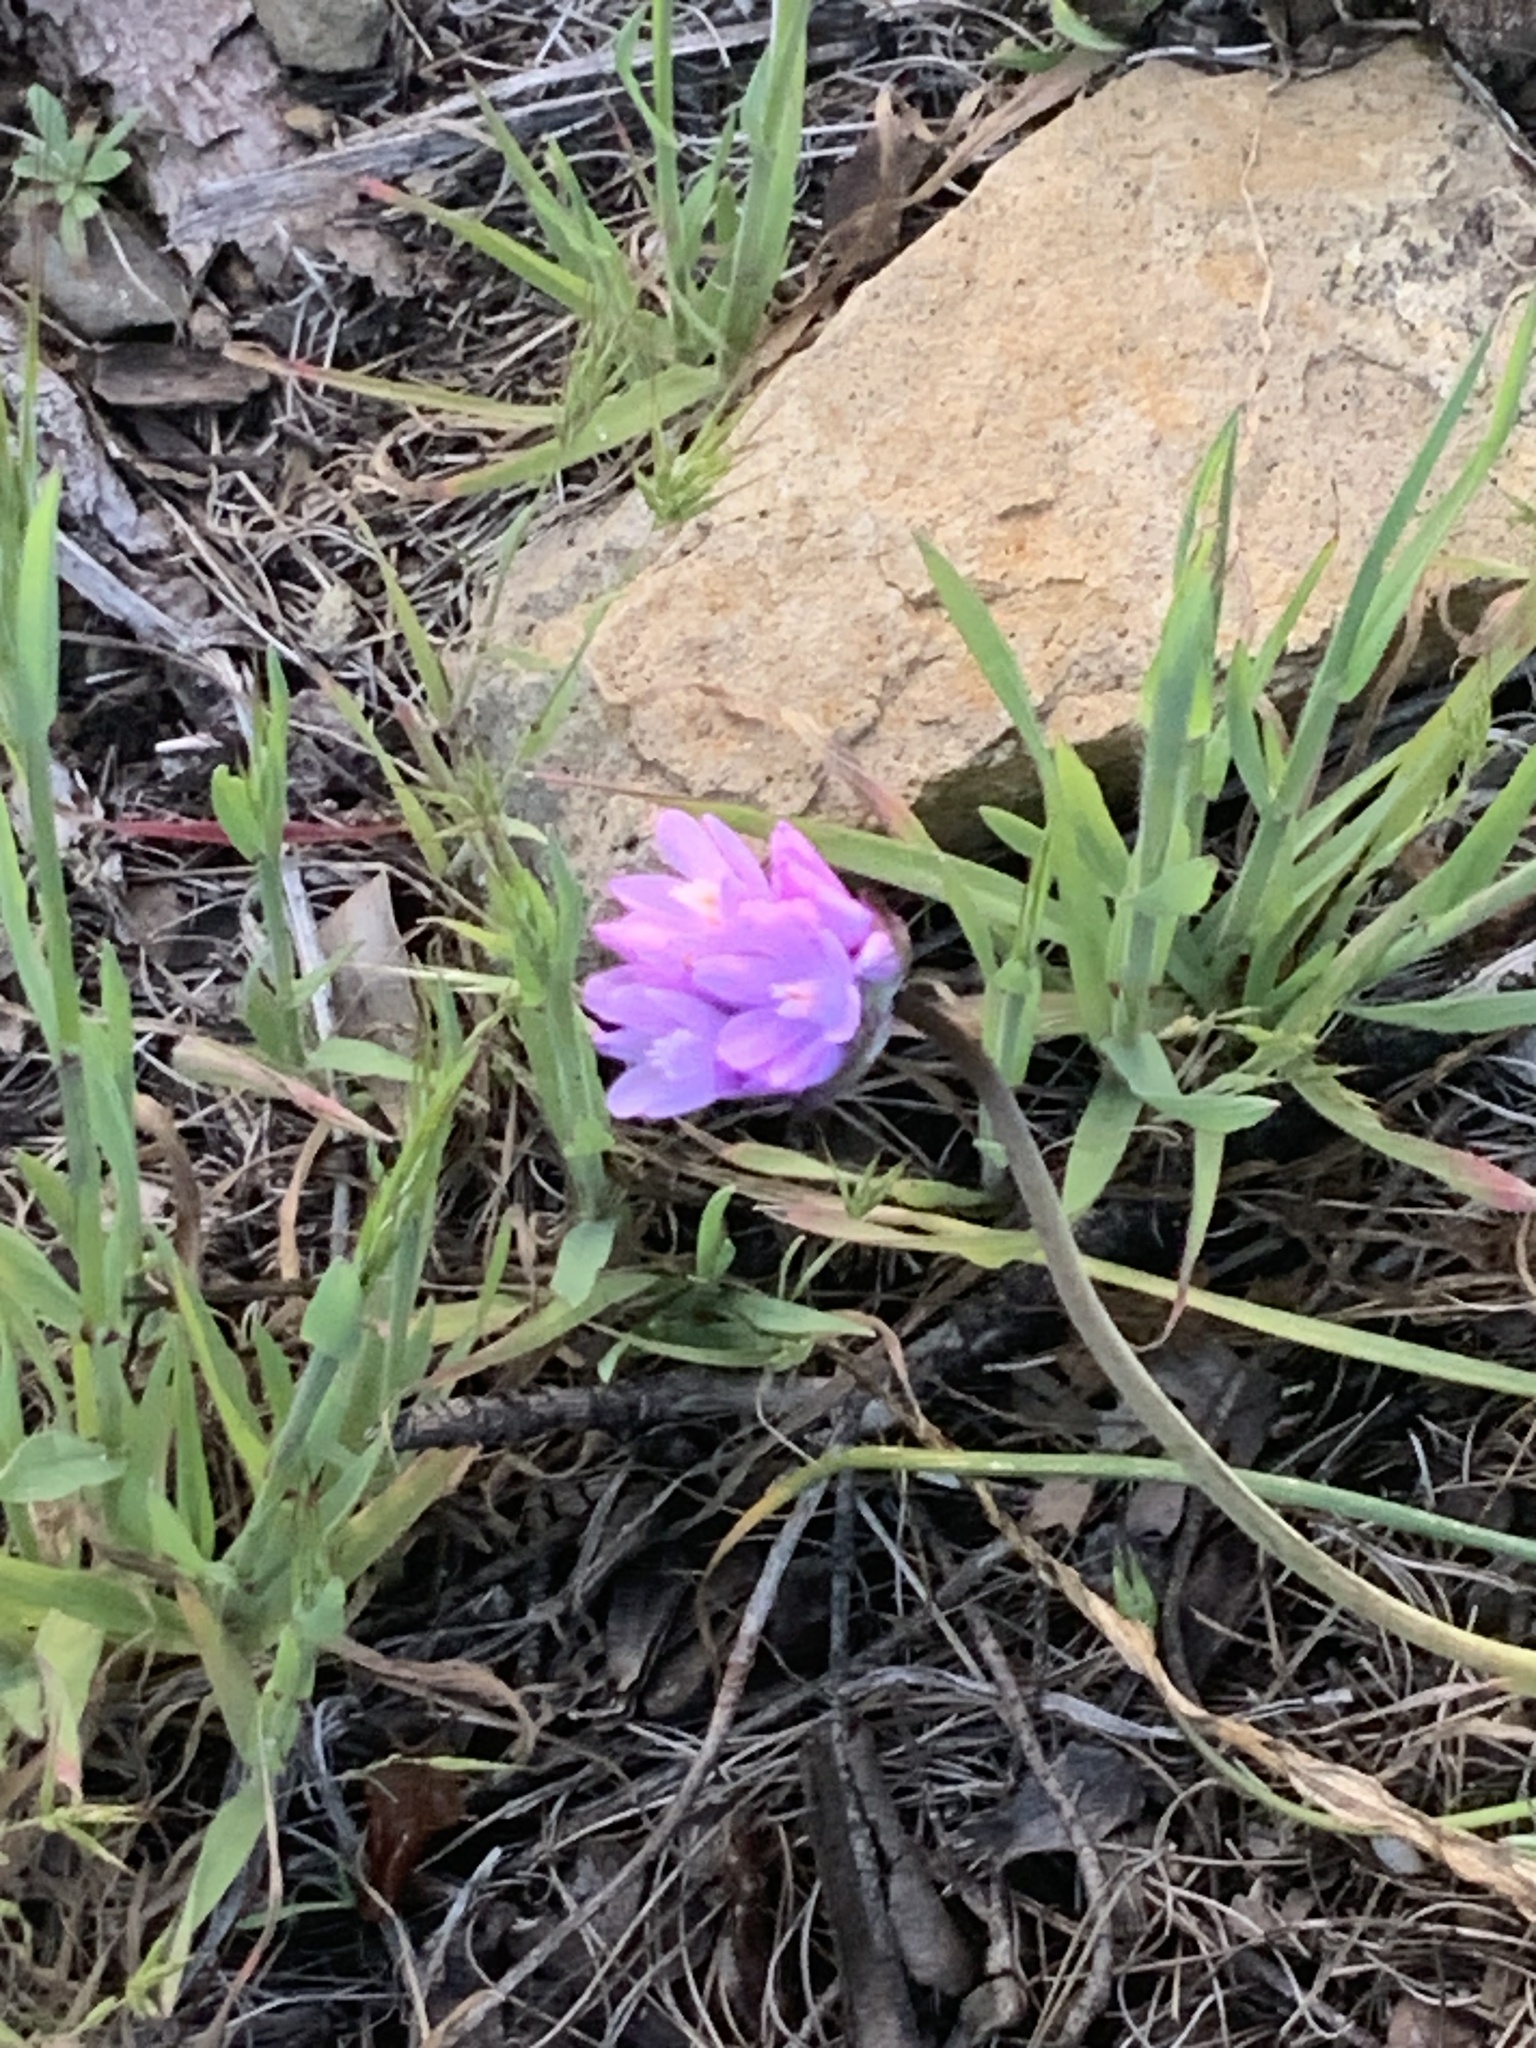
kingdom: Plantae
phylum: Tracheophyta
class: Liliopsida
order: Asparagales
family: Asparagaceae
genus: Dipterostemon
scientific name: Dipterostemon capitatus
